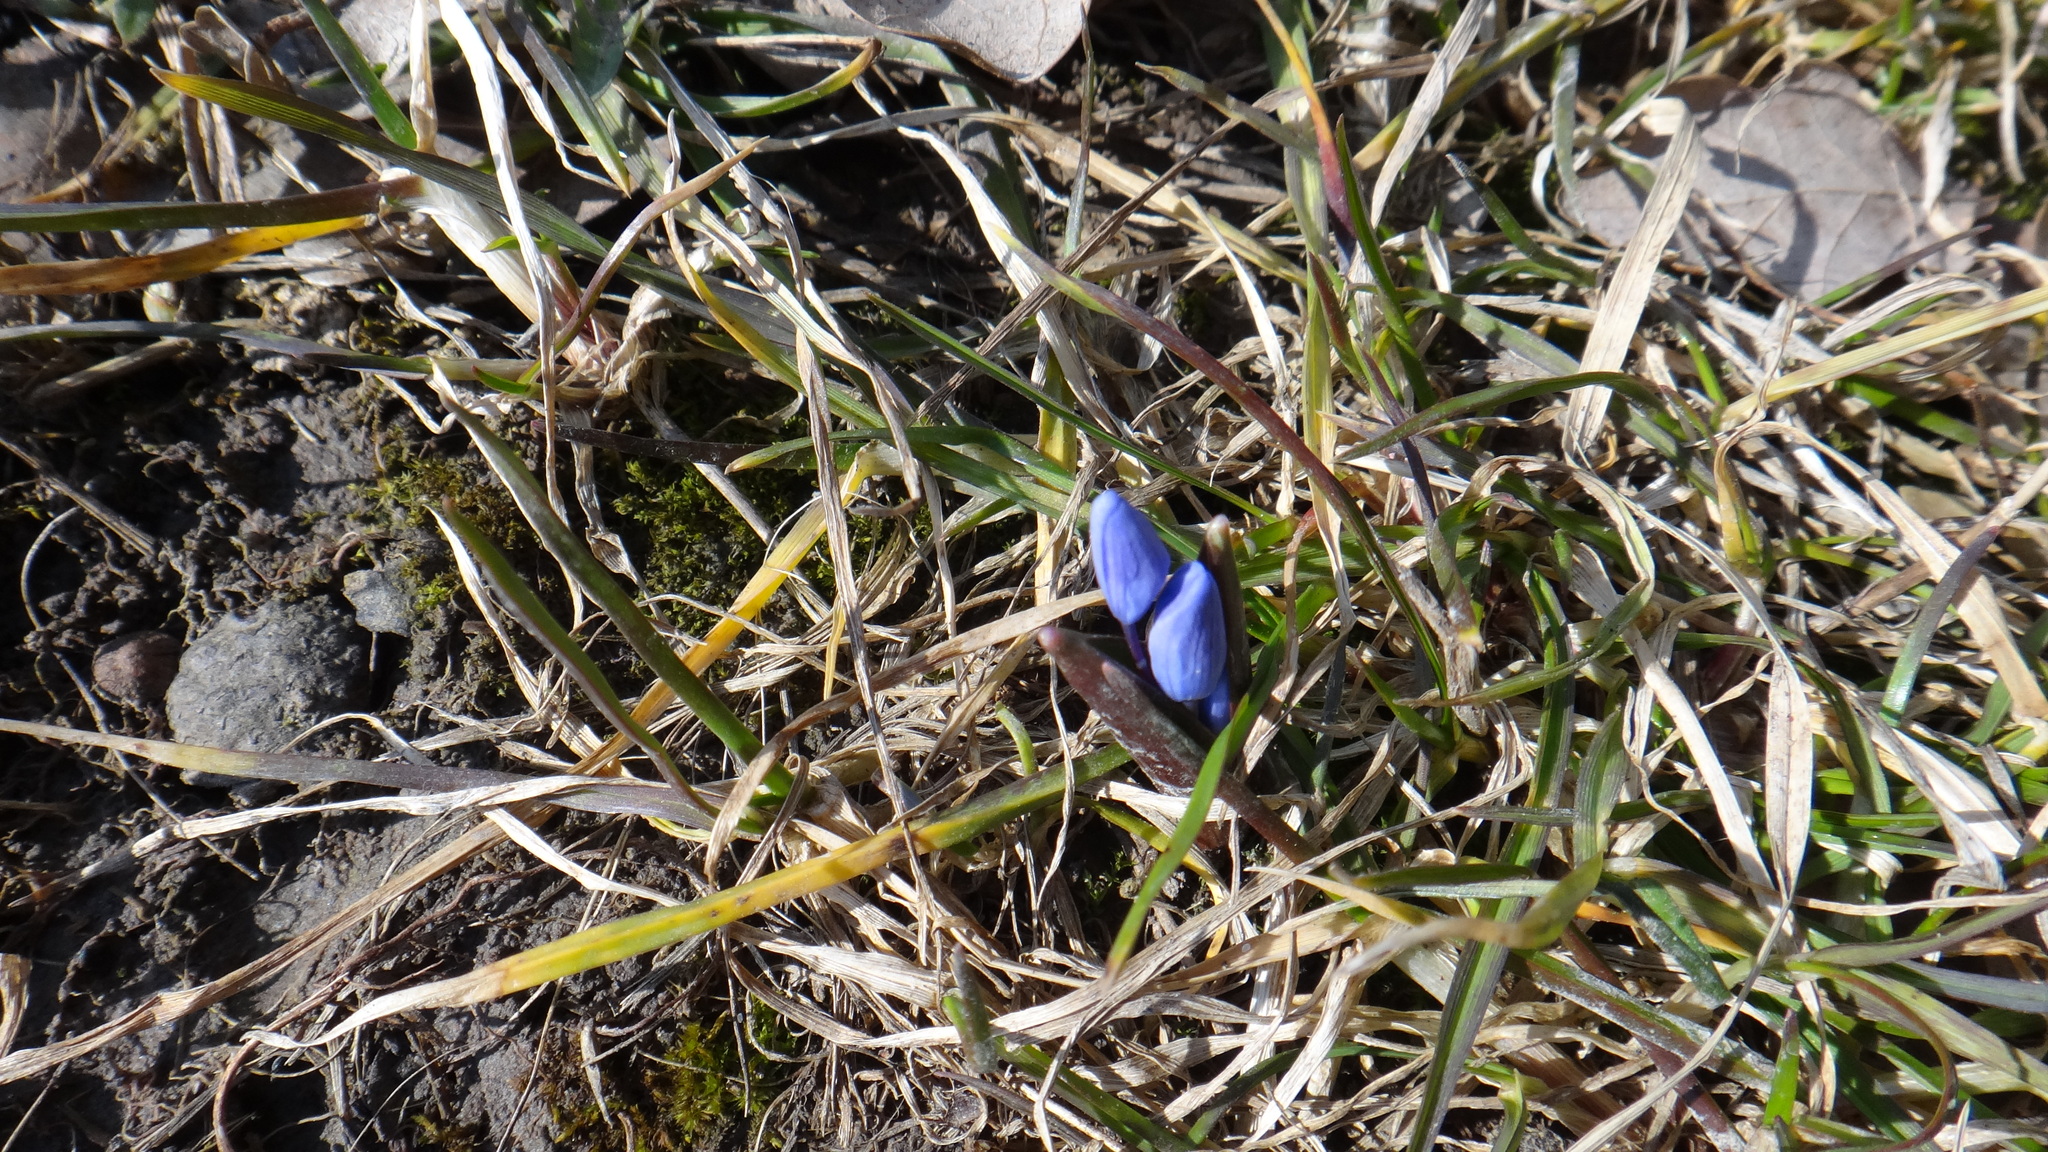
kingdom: Plantae
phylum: Tracheophyta
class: Liliopsida
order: Asparagales
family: Asparagaceae
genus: Scilla
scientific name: Scilla bifolia
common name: Alpine squill
